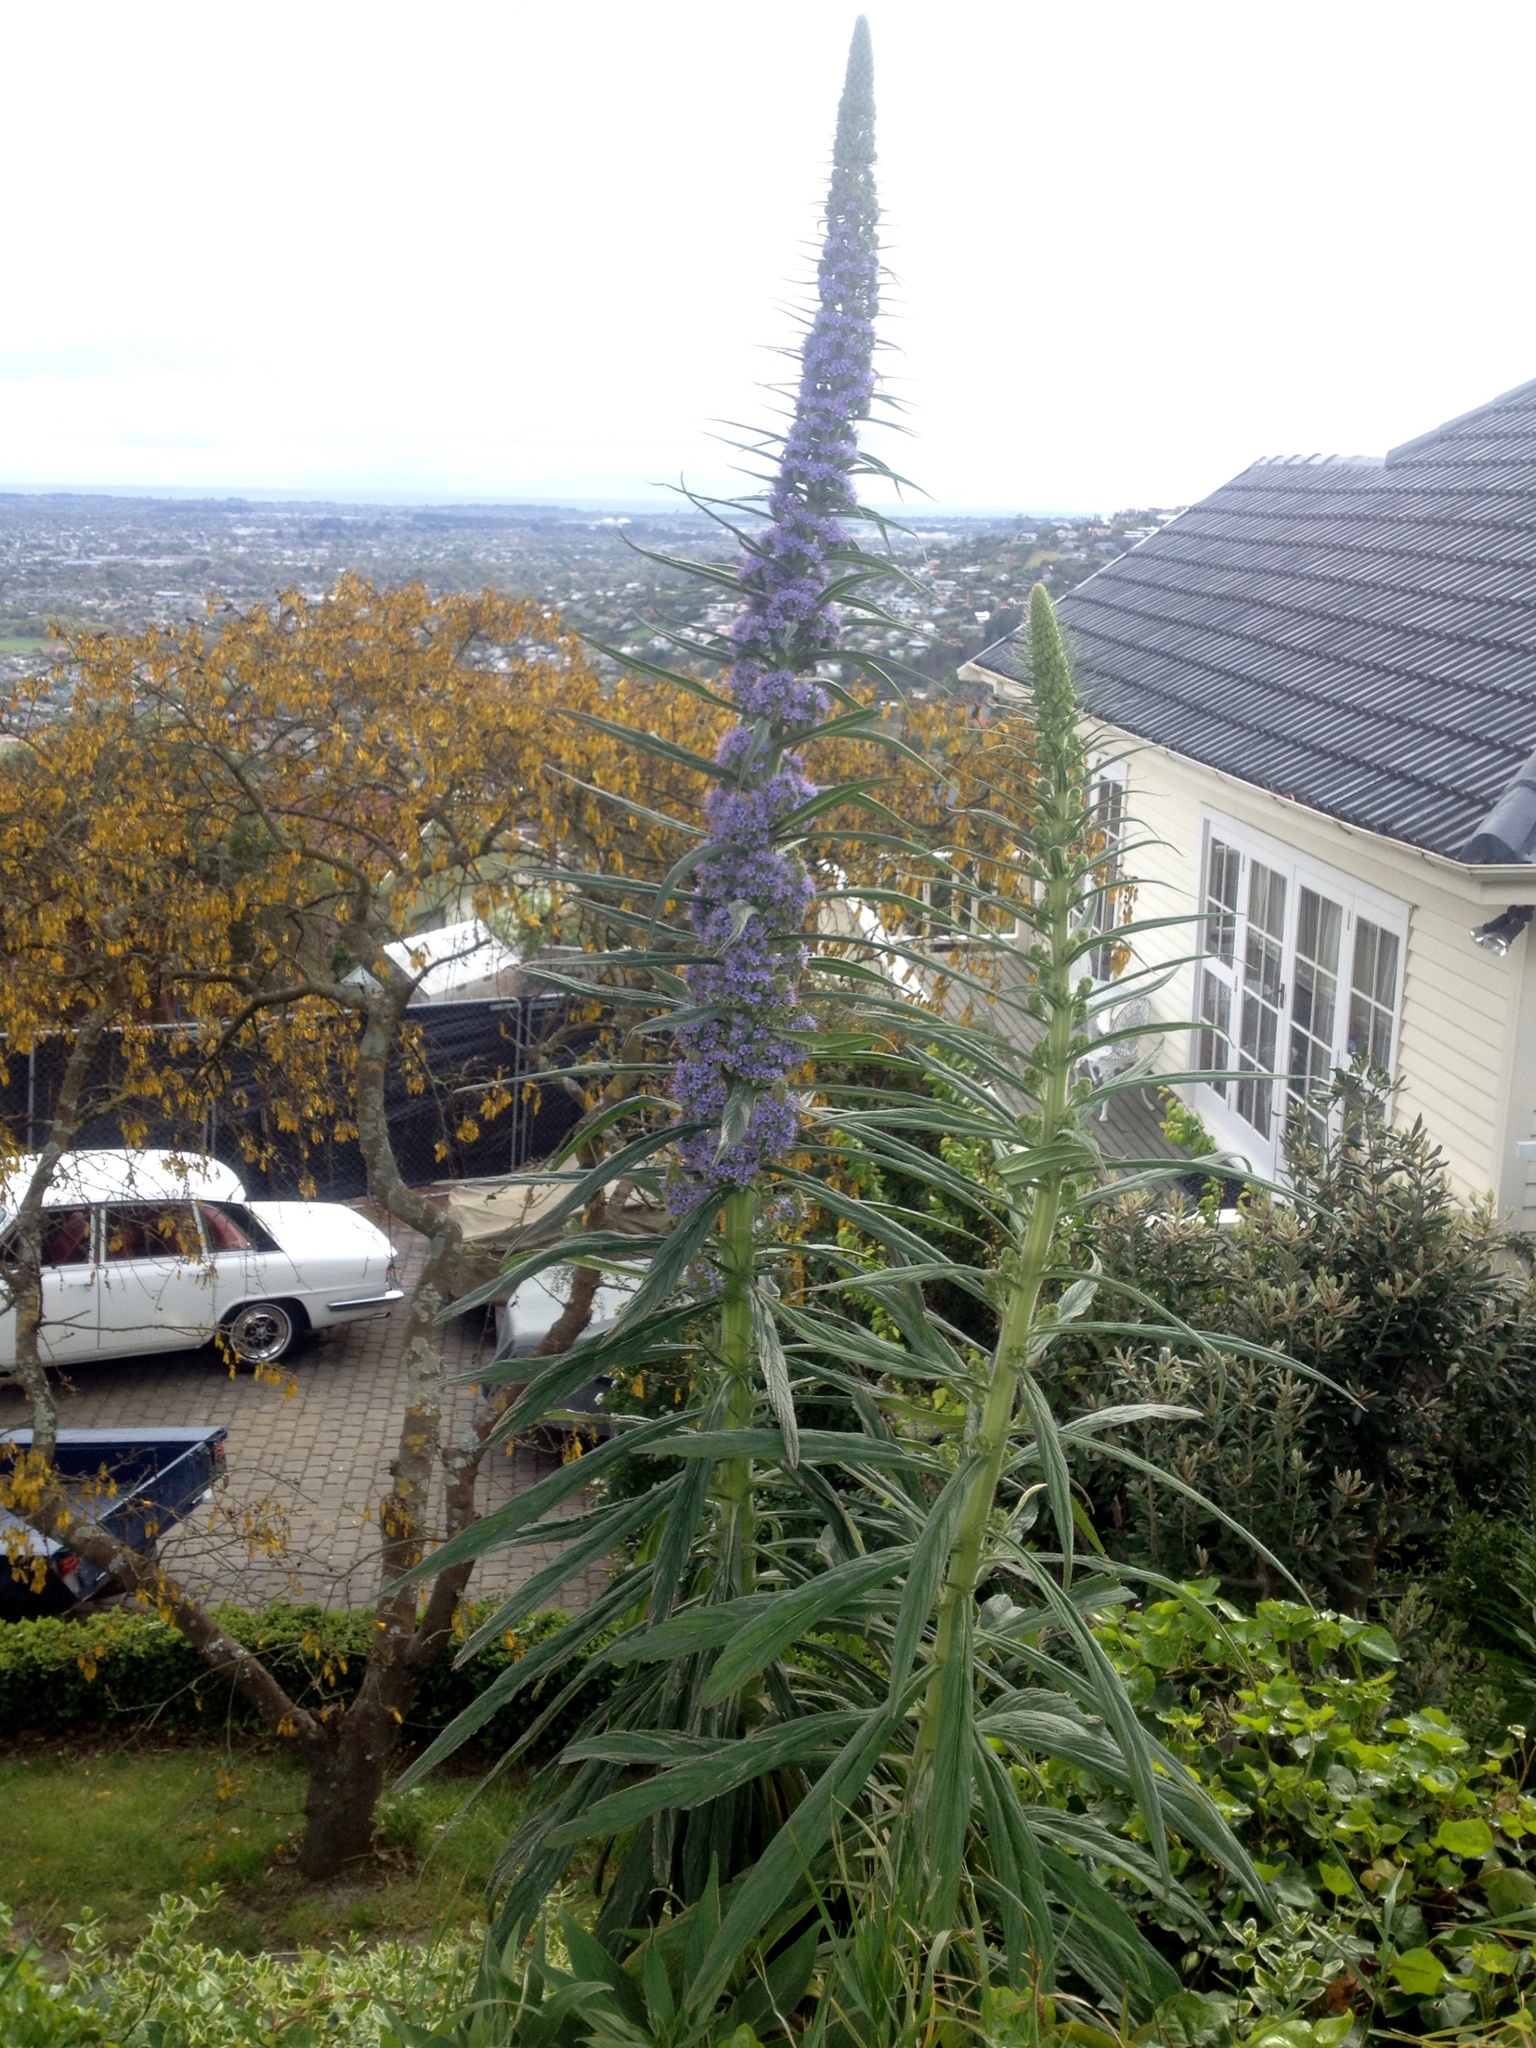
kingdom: Plantae
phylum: Tracheophyta
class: Magnoliopsida
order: Boraginales
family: Boraginaceae
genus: Echium
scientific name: Echium pininana
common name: Giant viper's-bugloss
